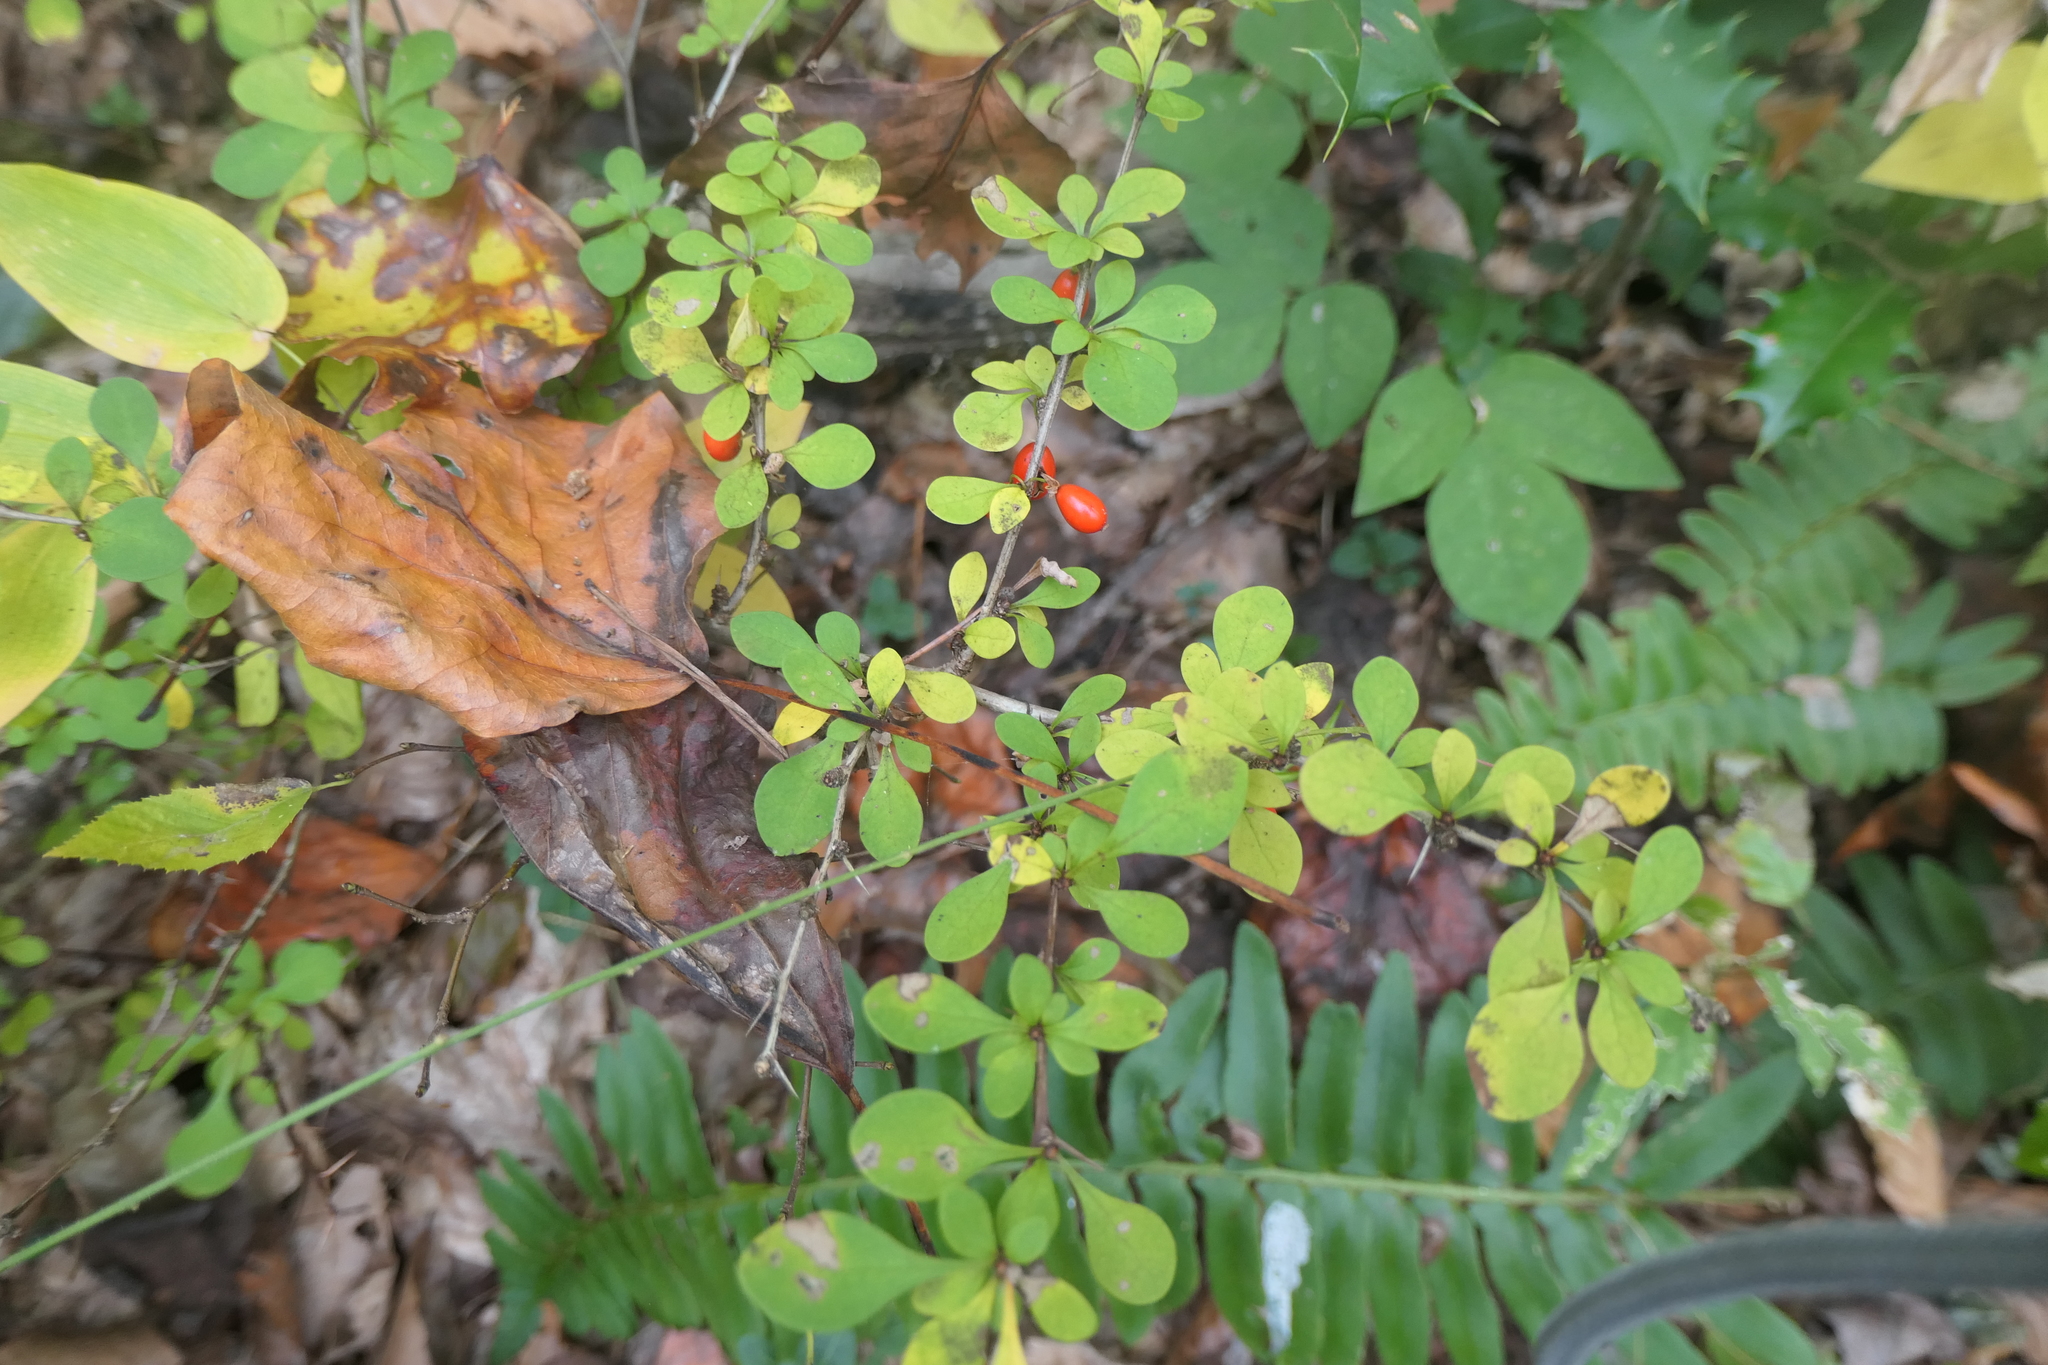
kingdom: Plantae
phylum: Tracheophyta
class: Magnoliopsida
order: Ranunculales
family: Berberidaceae
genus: Berberis
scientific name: Berberis thunbergii
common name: Japanese barberry
